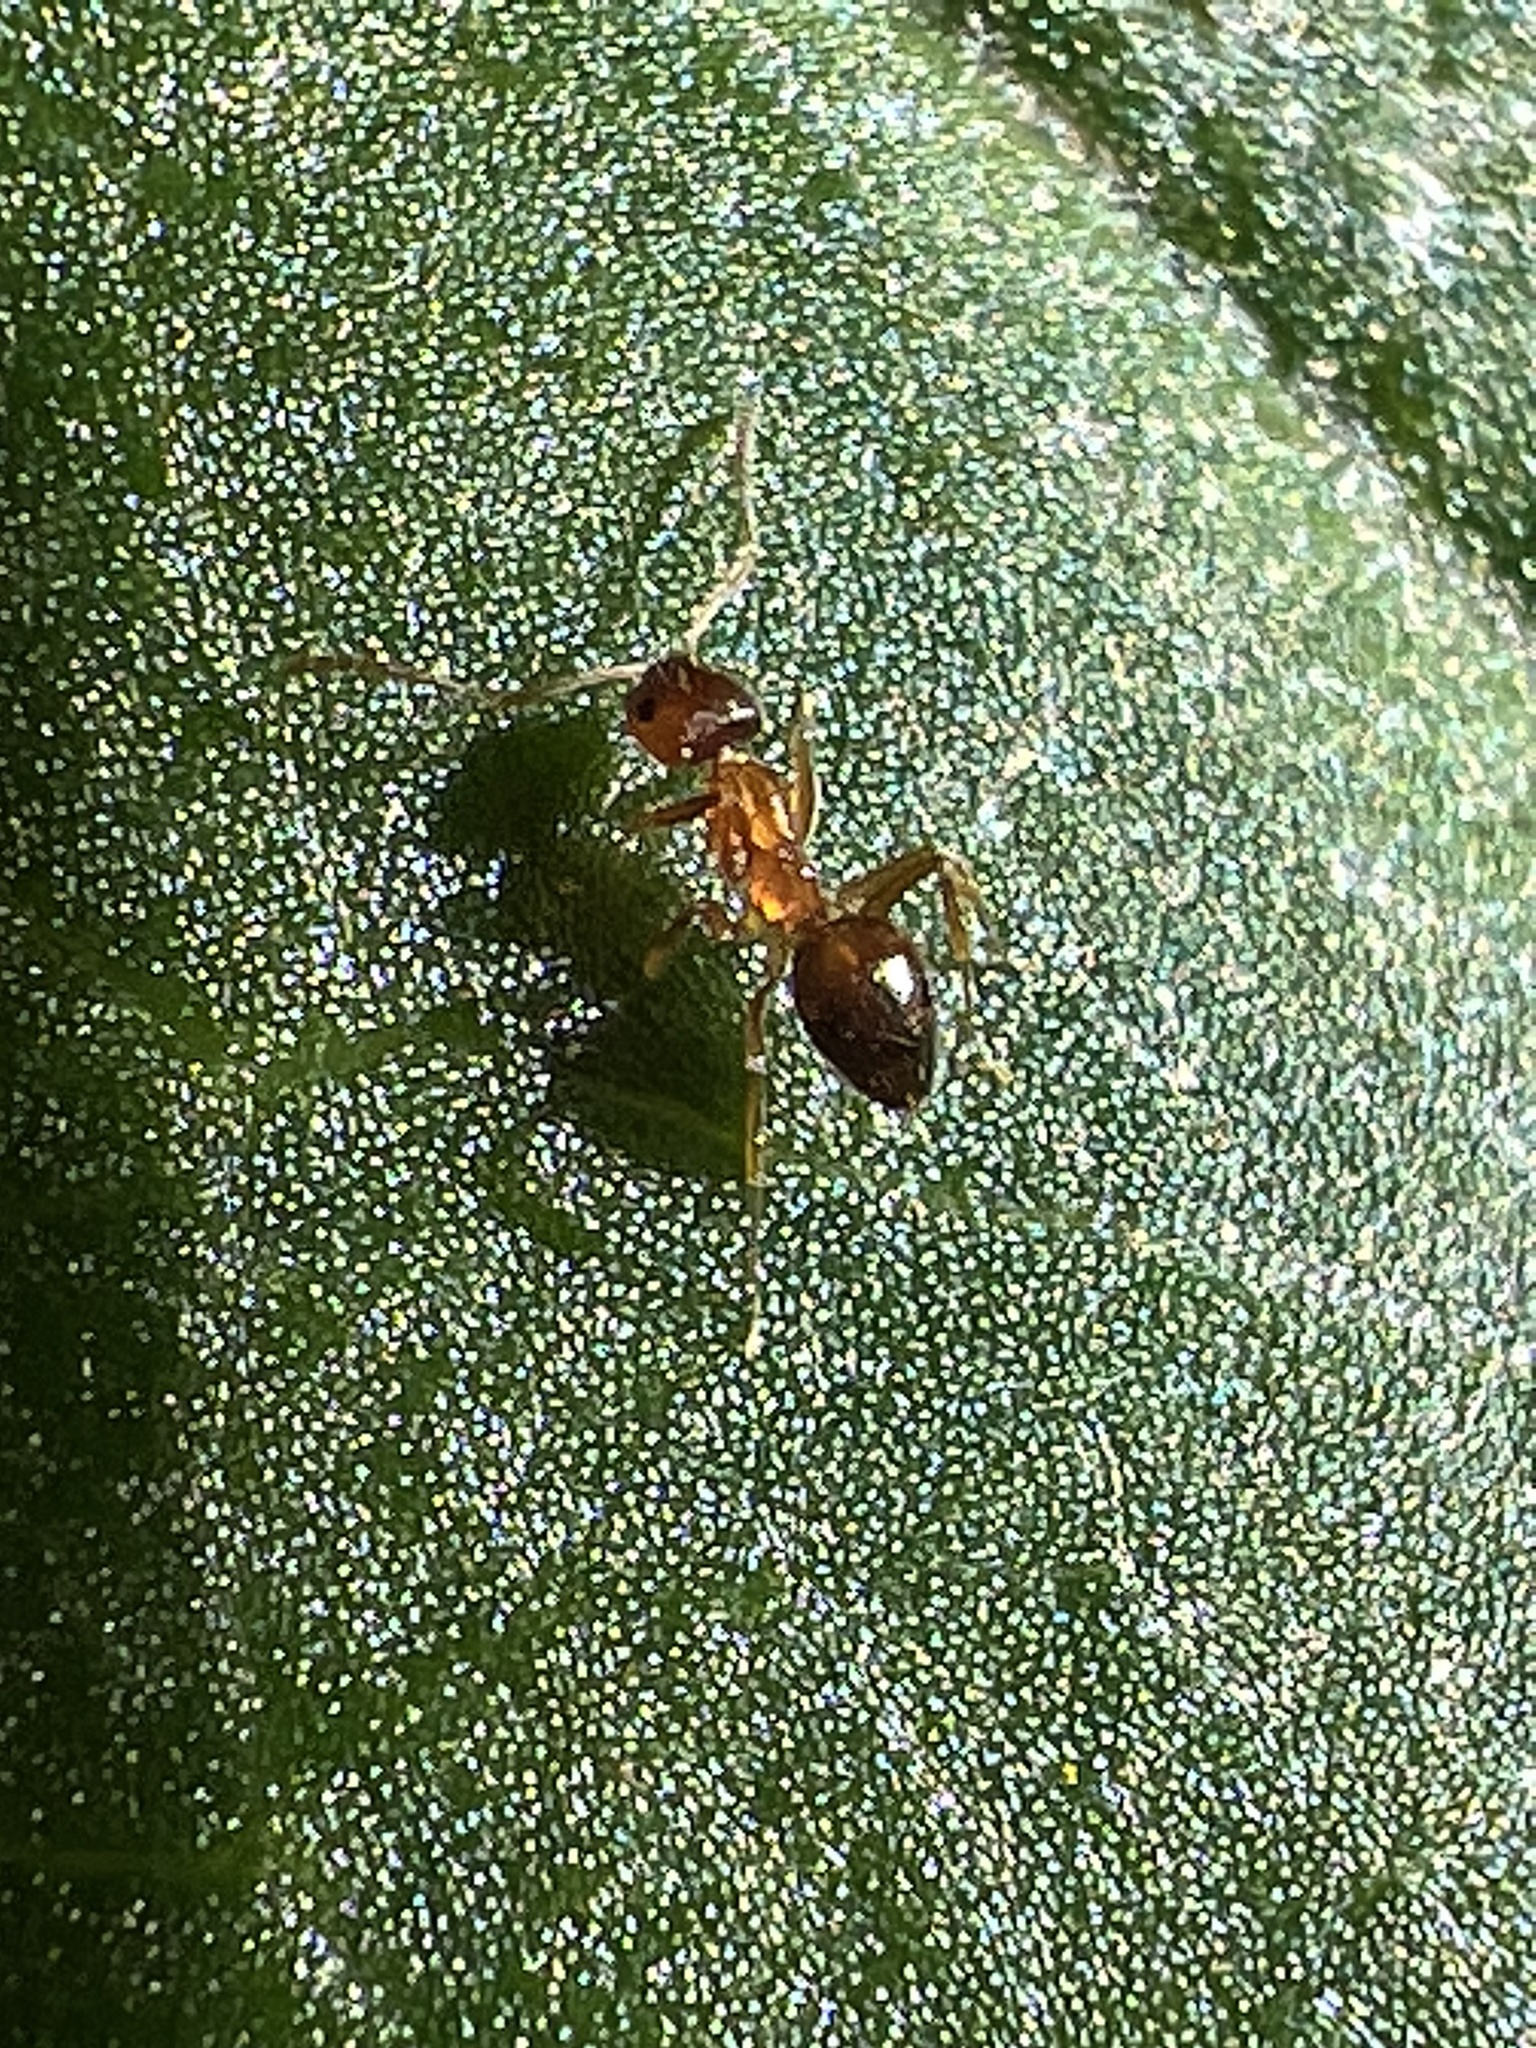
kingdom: Animalia
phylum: Arthropoda
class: Insecta
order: Hymenoptera
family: Formicidae
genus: Paratrechina
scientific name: Paratrechina flavipes
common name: Eastern asian formicine ant
